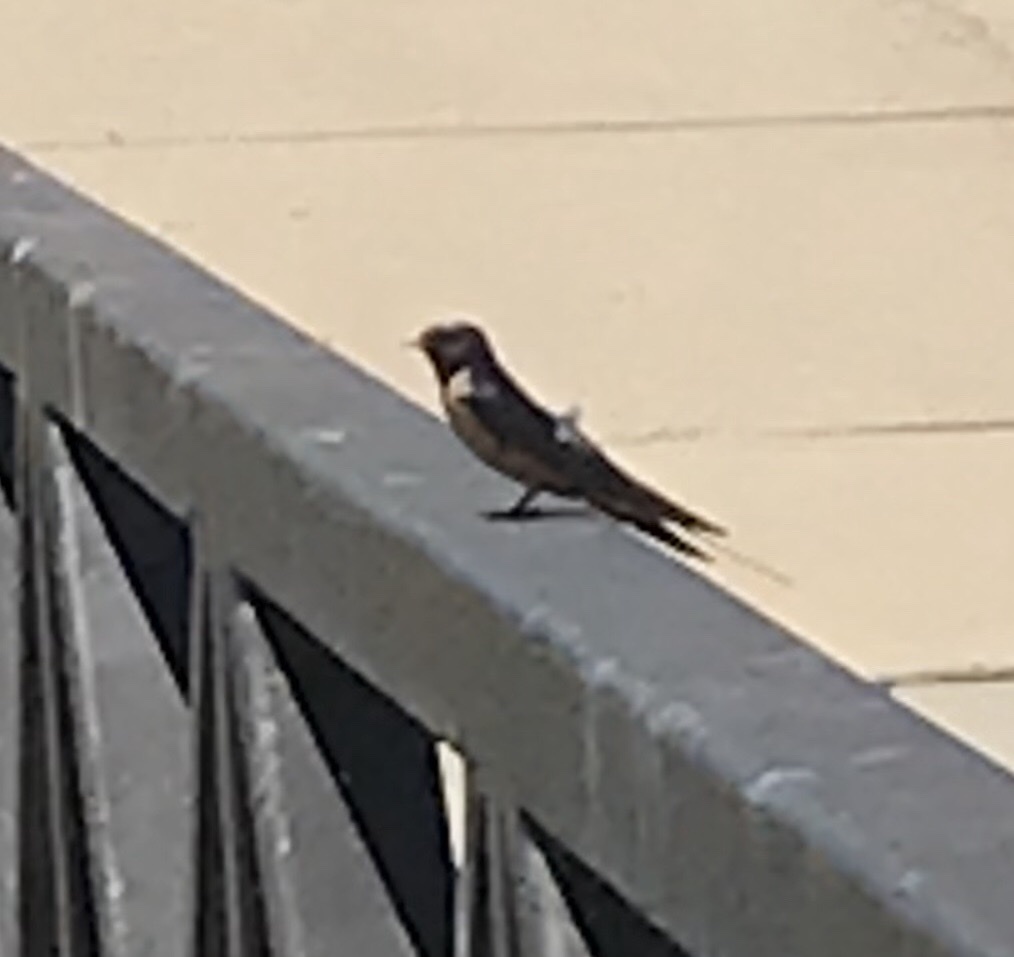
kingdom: Animalia
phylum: Chordata
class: Aves
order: Passeriformes
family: Hirundinidae
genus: Hirundo
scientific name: Hirundo rustica
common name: Barn swallow
